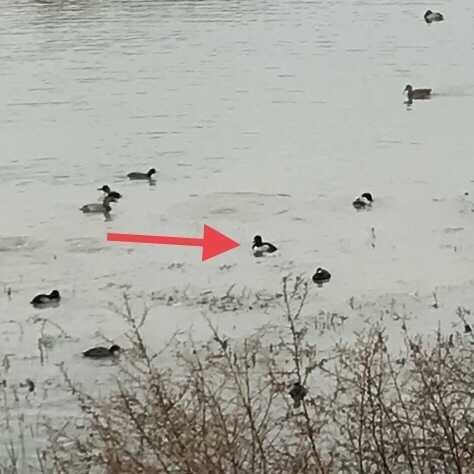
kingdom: Animalia
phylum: Chordata
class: Aves
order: Anseriformes
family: Anatidae
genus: Aythya
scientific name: Aythya collaris
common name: Ring-necked duck
